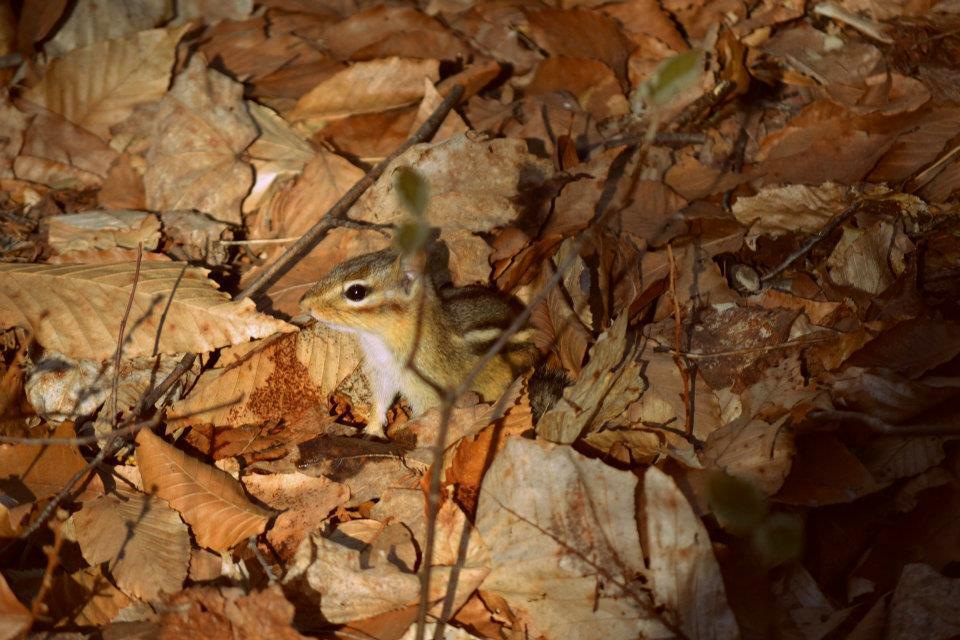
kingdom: Animalia
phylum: Chordata
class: Mammalia
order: Rodentia
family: Sciuridae
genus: Tamias
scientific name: Tamias striatus
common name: Eastern chipmunk
